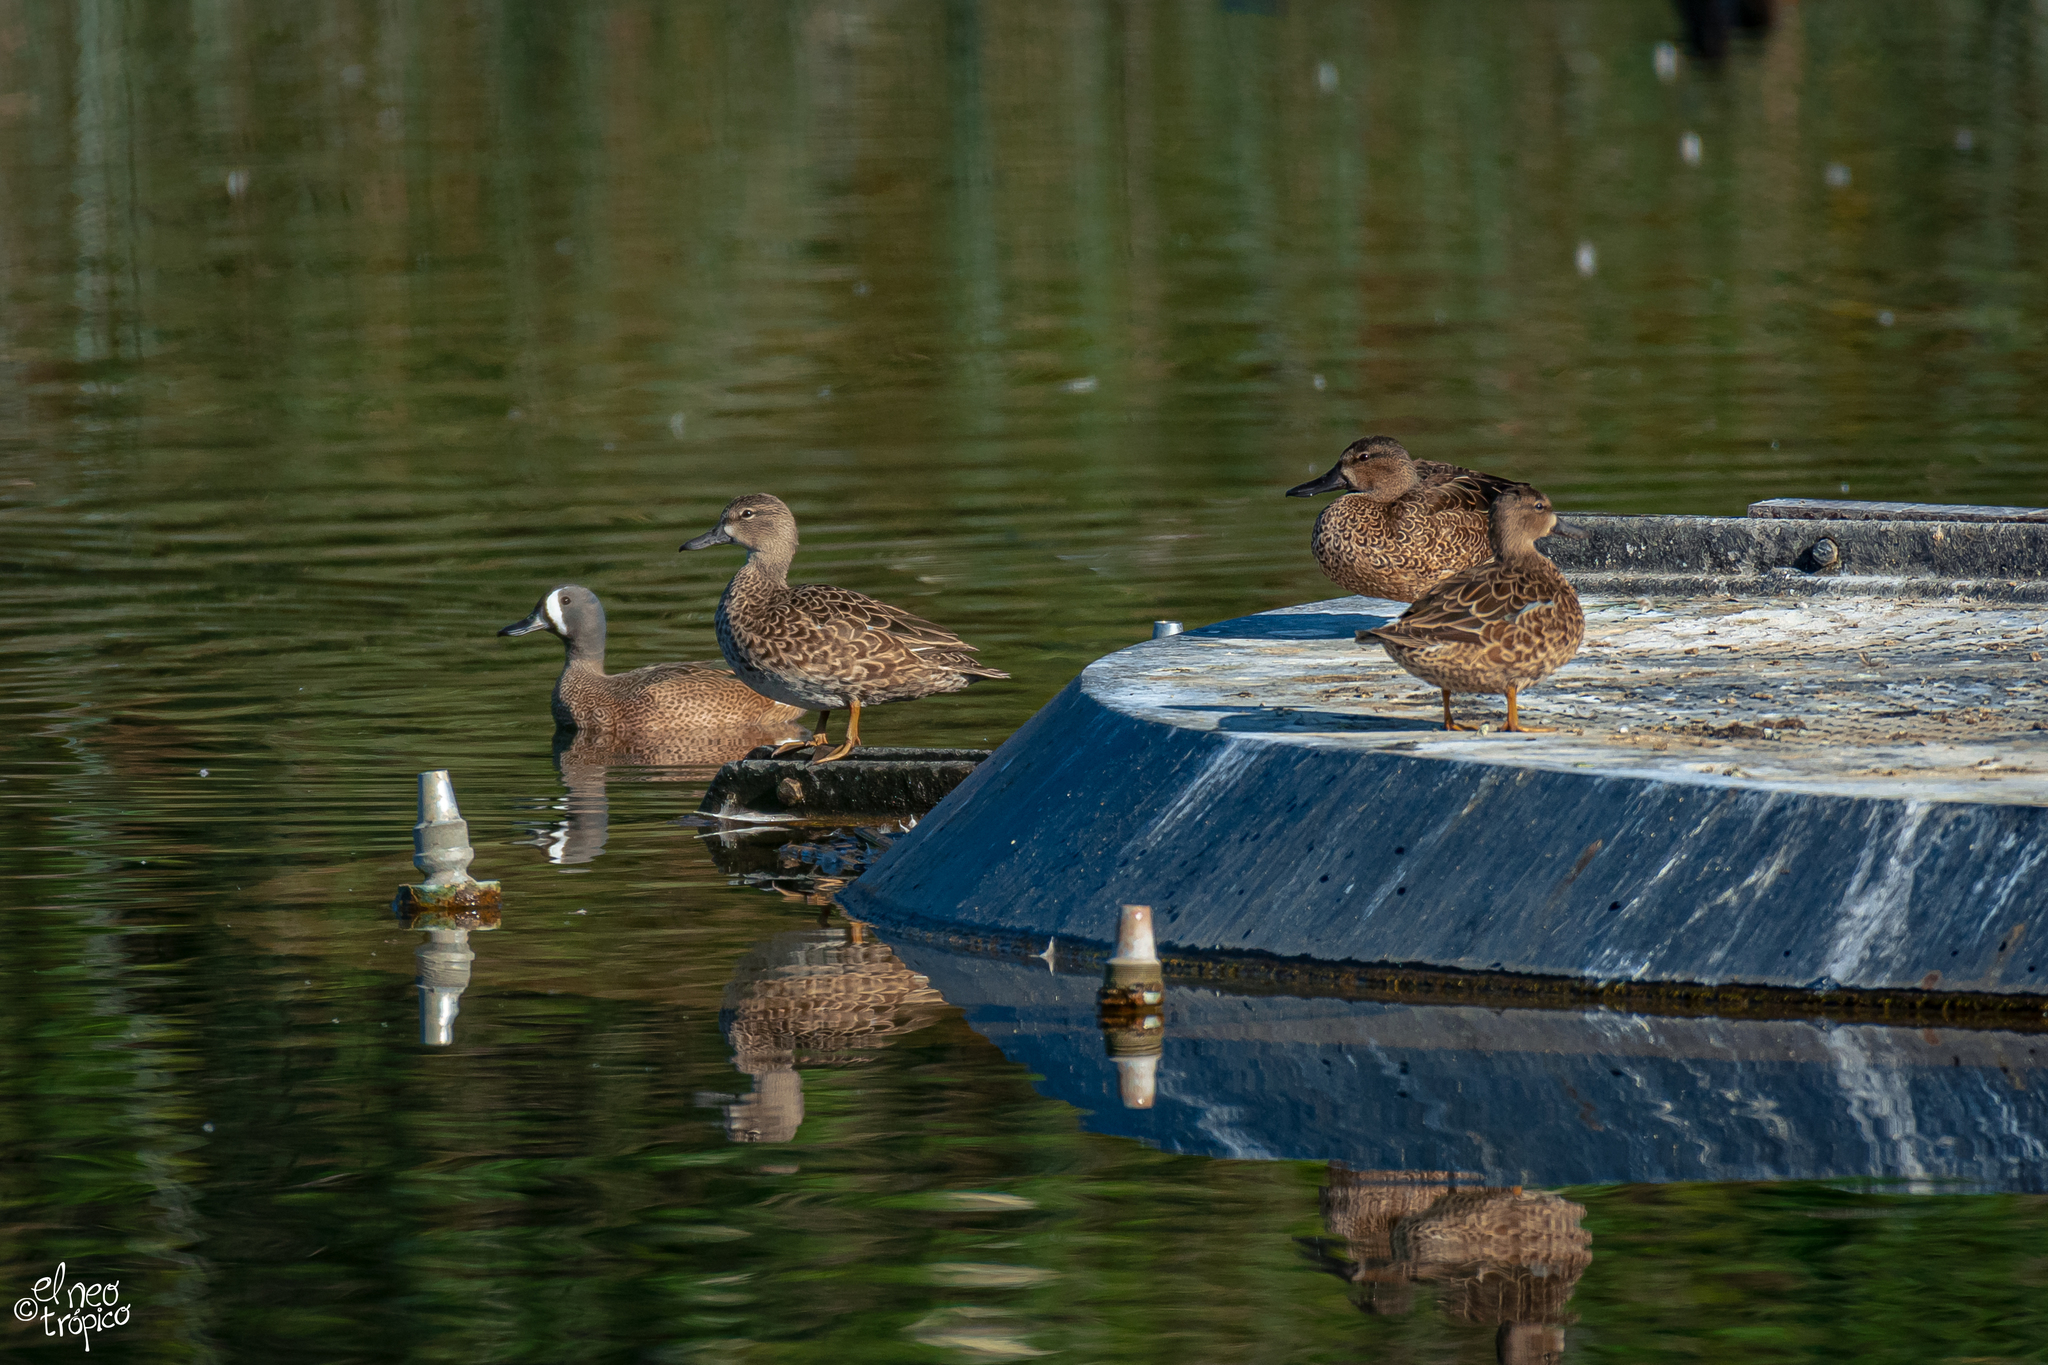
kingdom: Animalia
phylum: Chordata
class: Aves
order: Anseriformes
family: Anatidae
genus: Spatula
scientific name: Spatula discors
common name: Blue-winged teal
